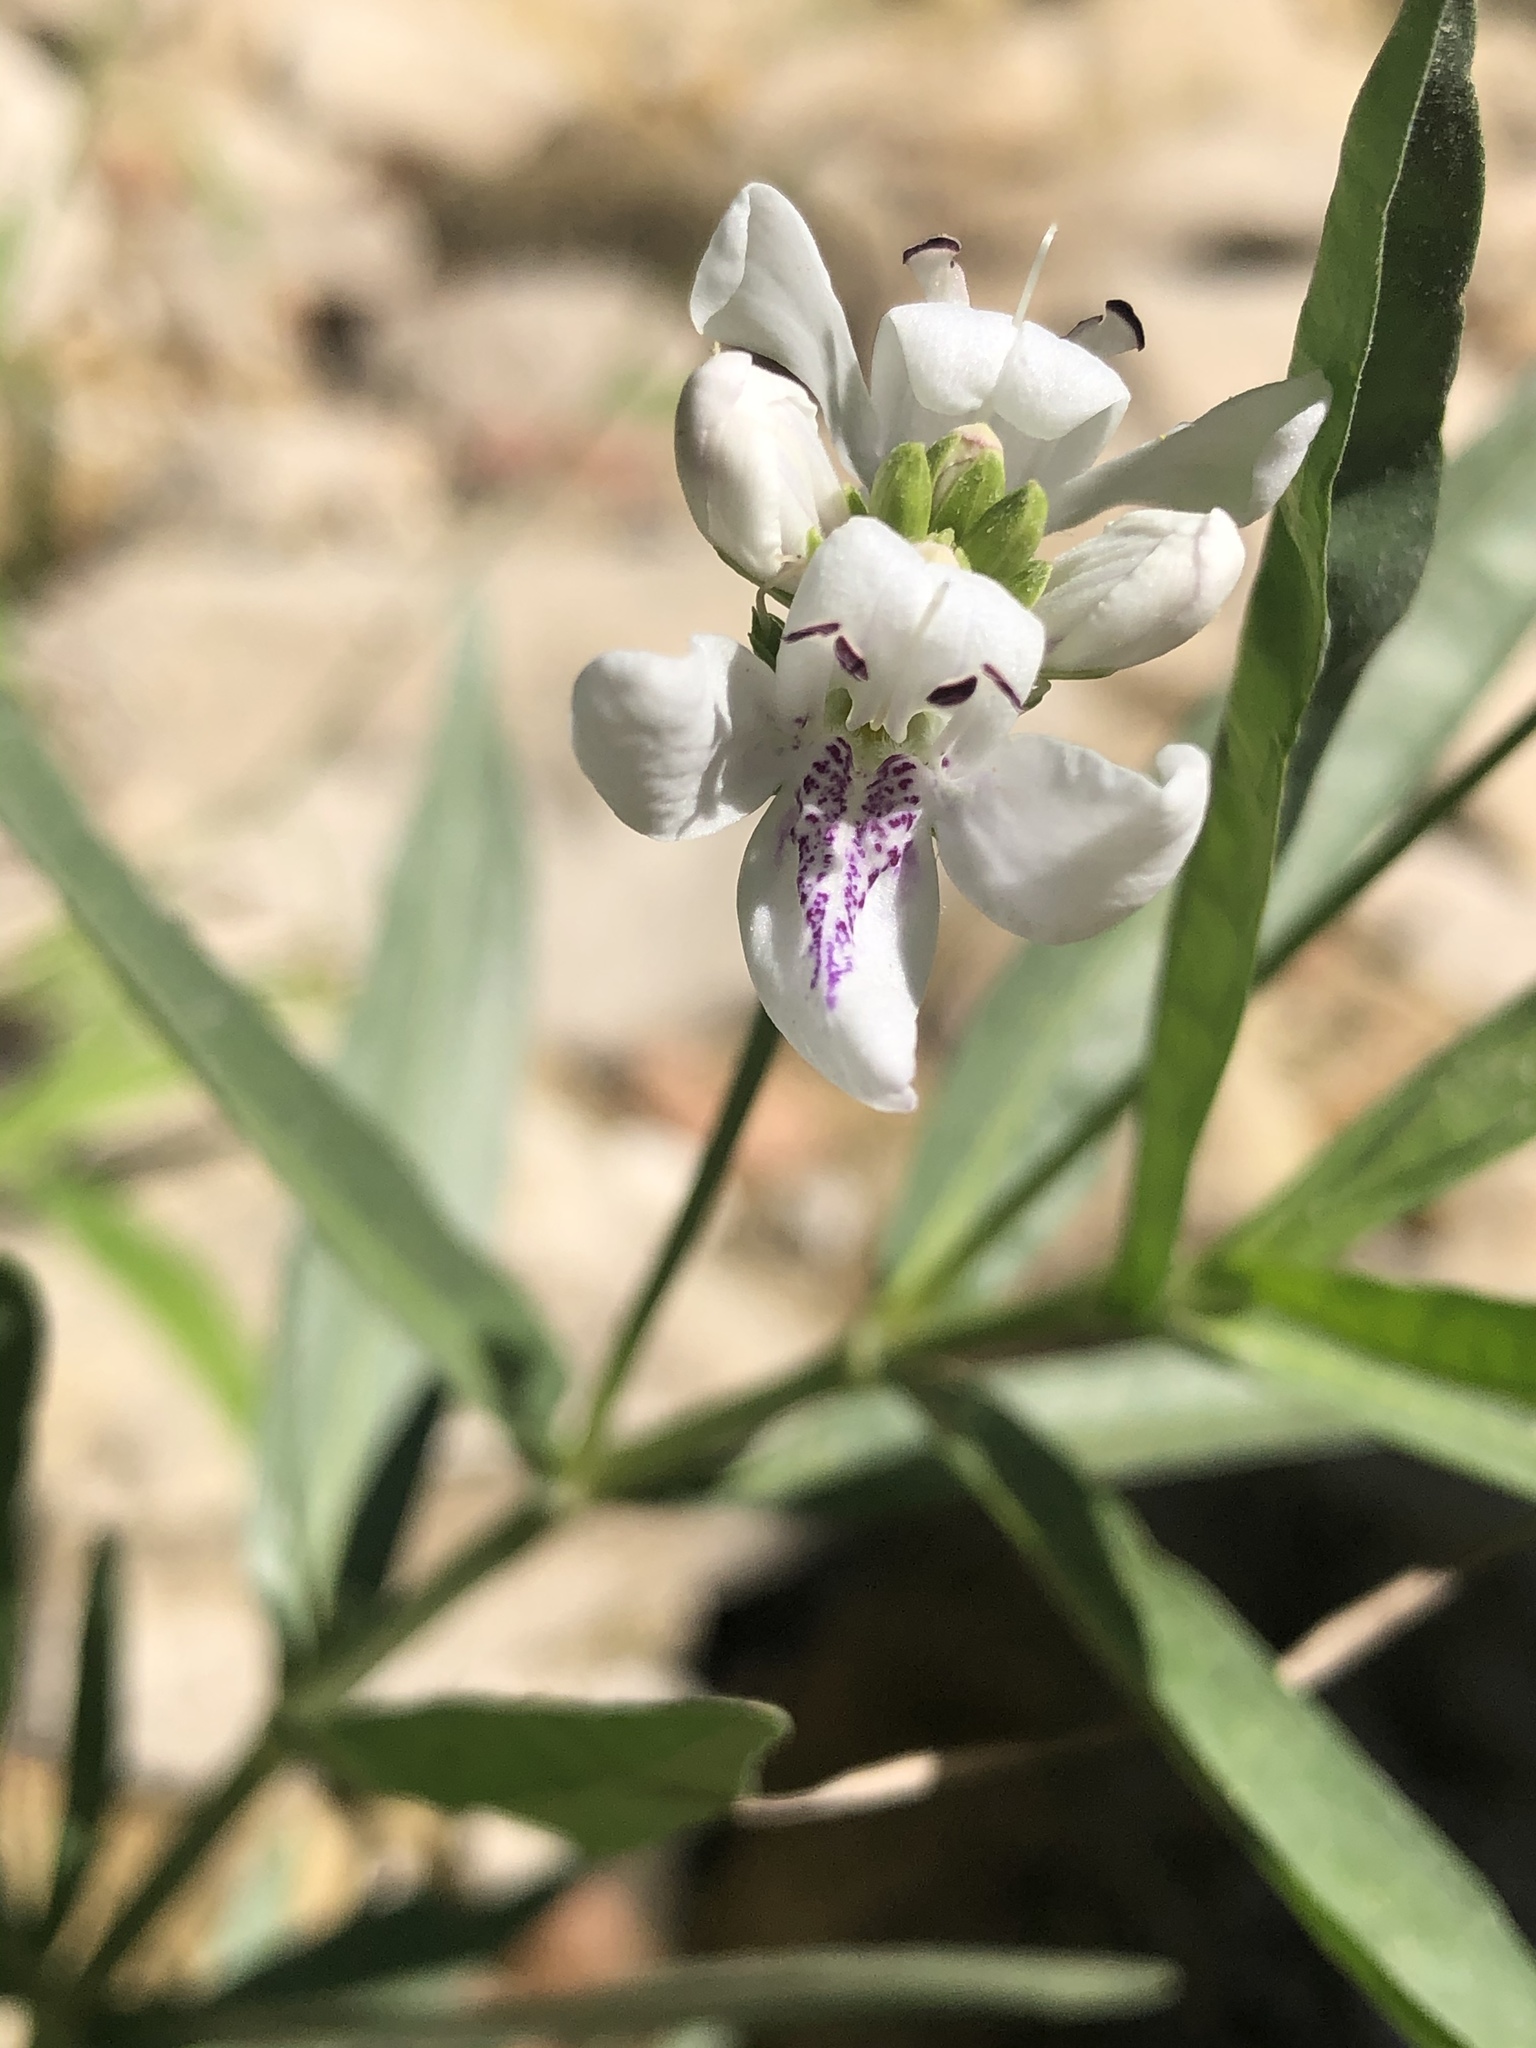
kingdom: Plantae
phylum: Tracheophyta
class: Magnoliopsida
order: Lamiales
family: Acanthaceae
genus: Dianthera
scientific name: Dianthera americana
